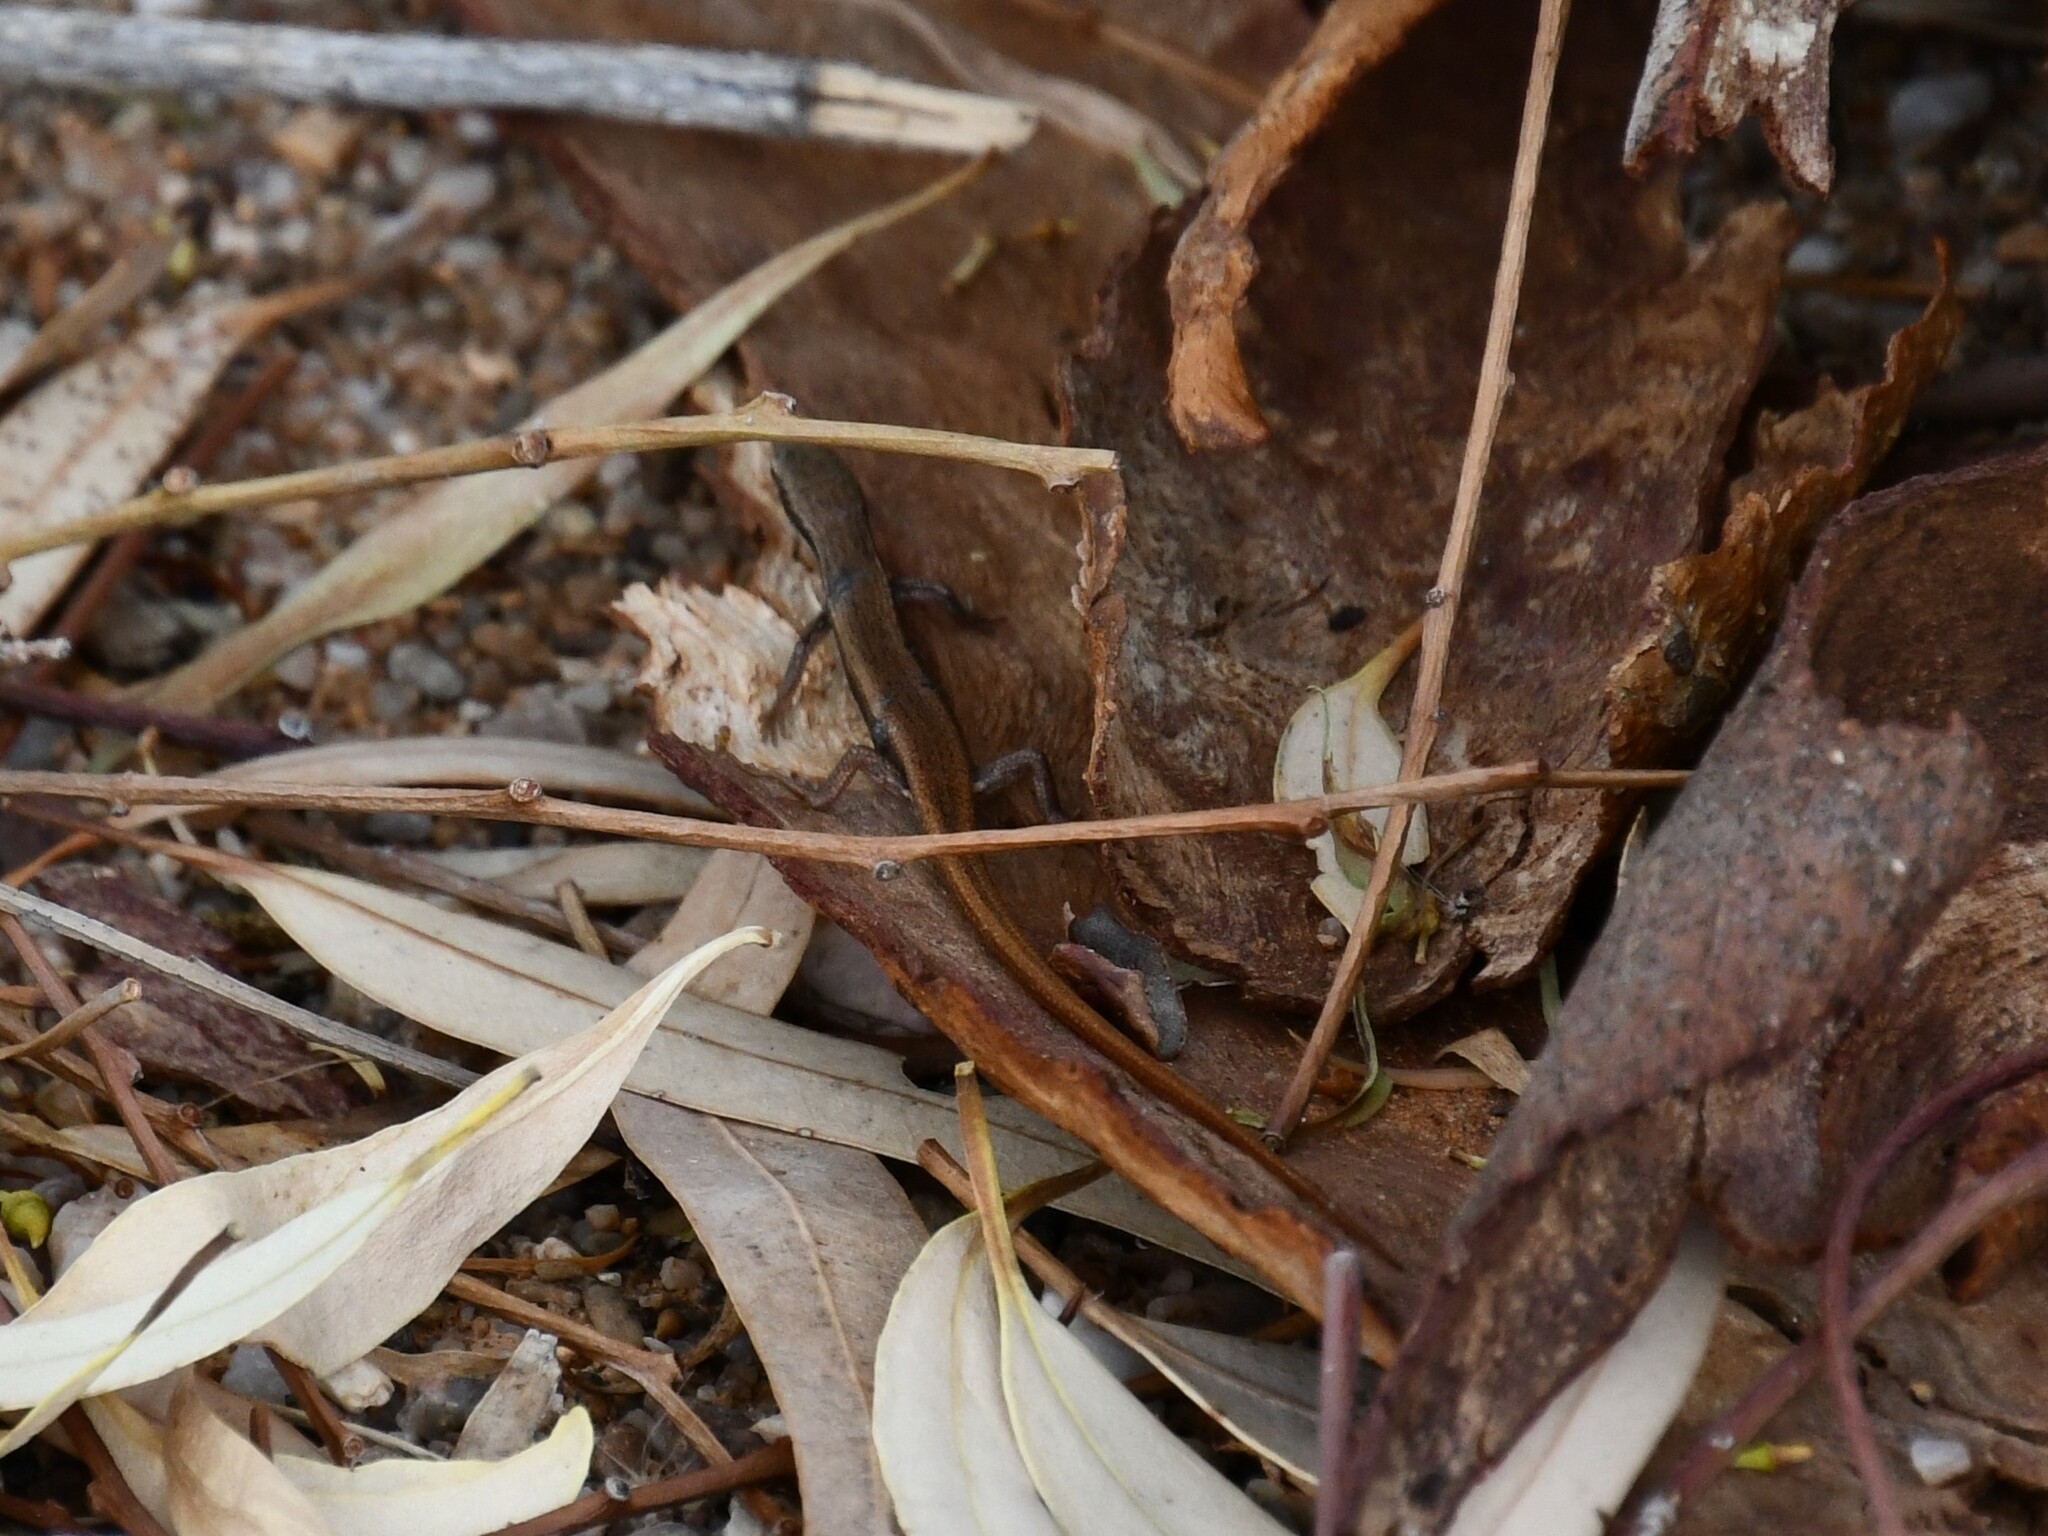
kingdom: Animalia
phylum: Chordata
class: Squamata
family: Scincidae
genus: Morethia
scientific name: Morethia boulengeri
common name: South-eastern morethia skink
